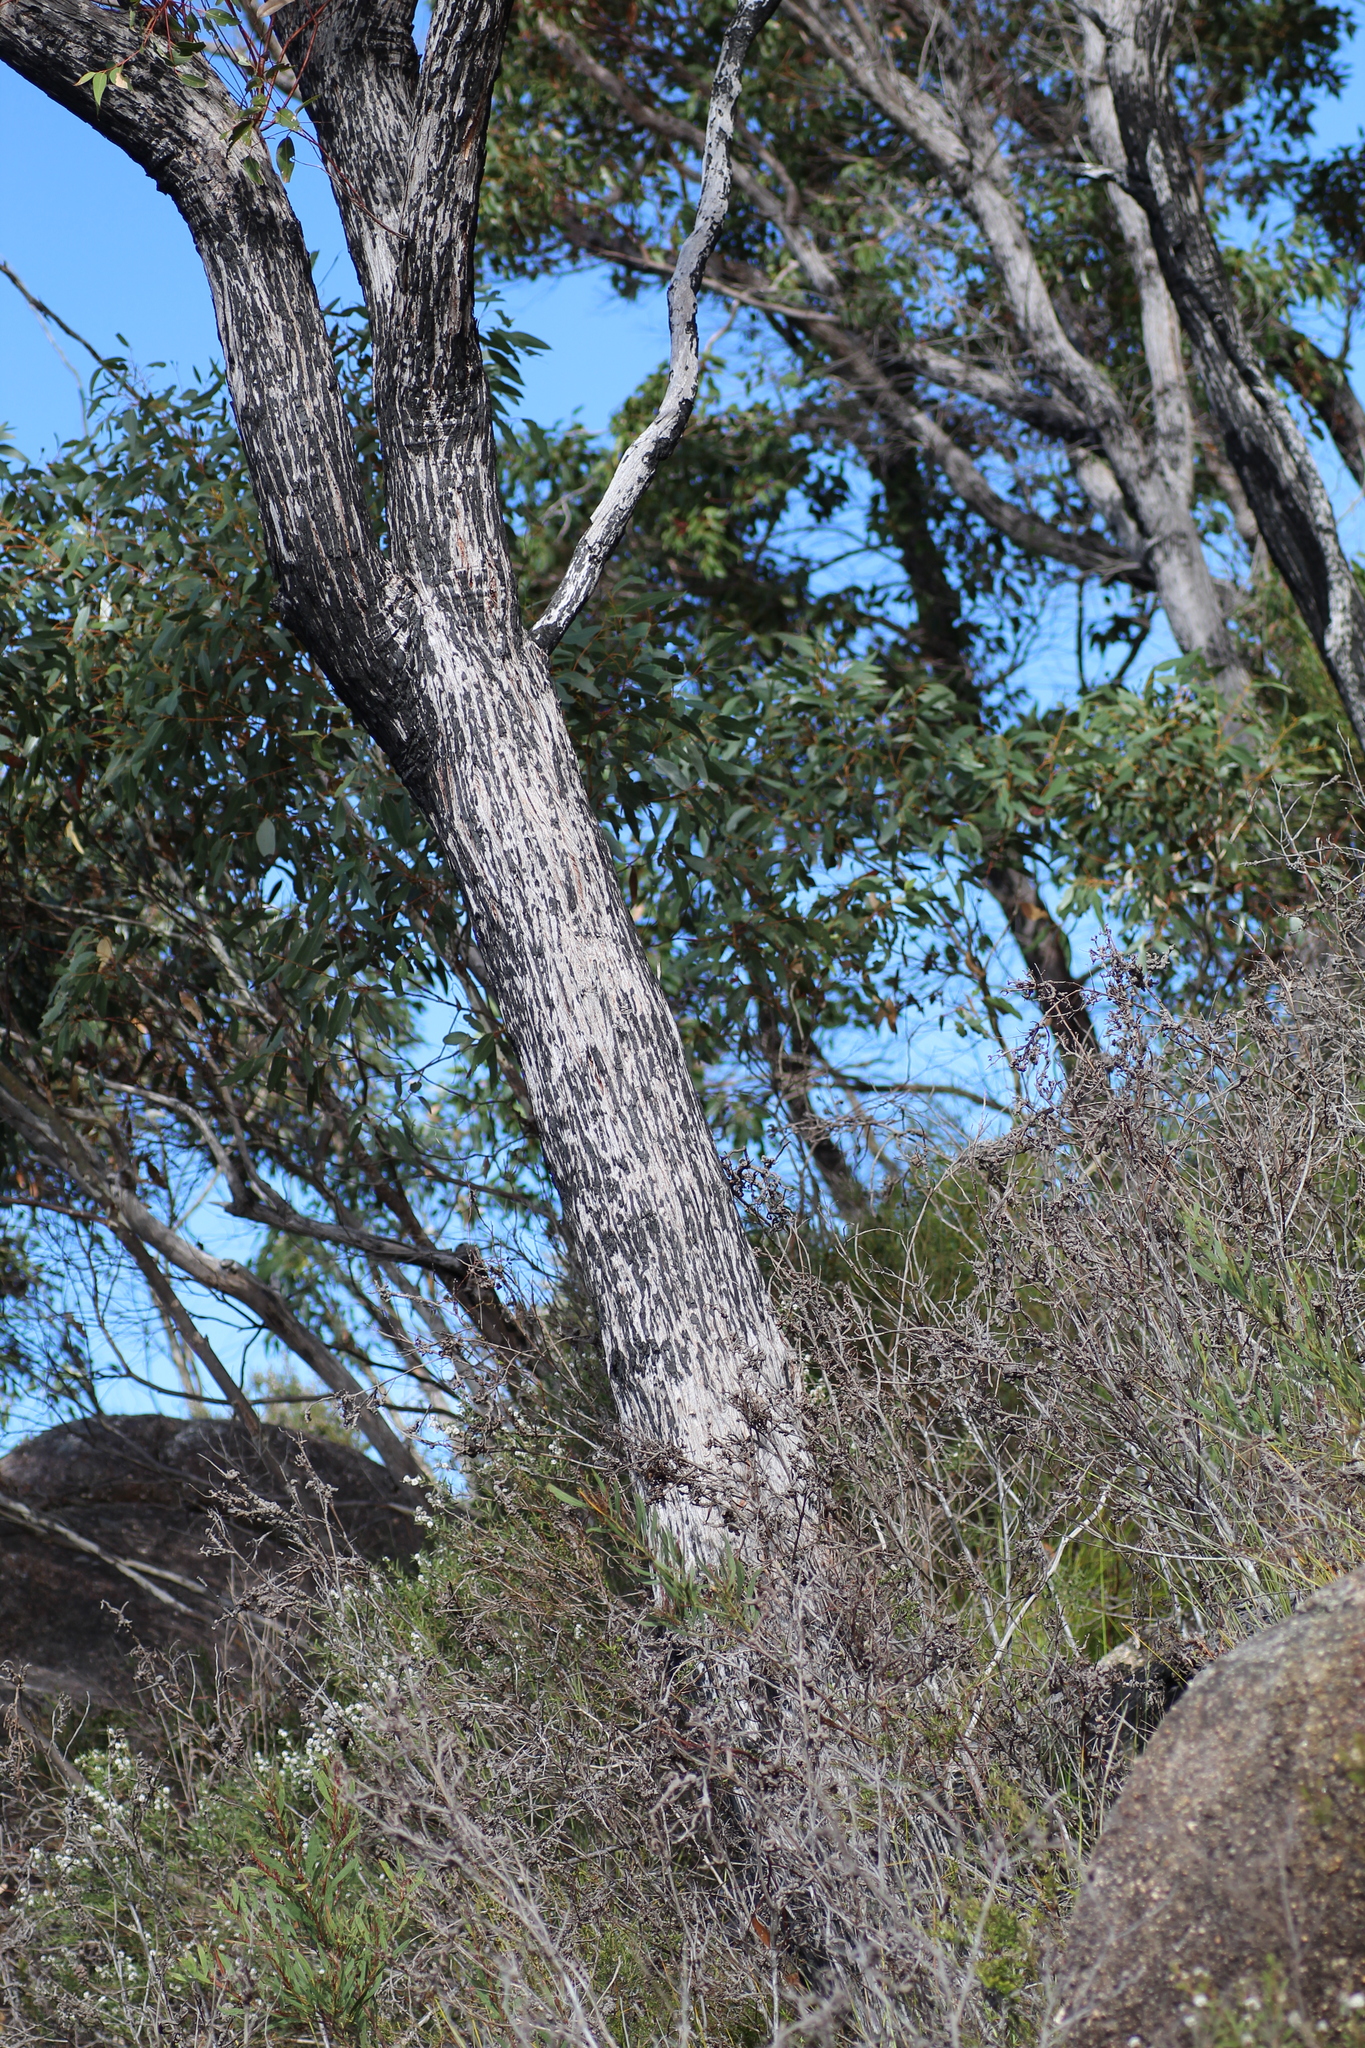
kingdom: Plantae
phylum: Tracheophyta
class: Magnoliopsida
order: Myrtales
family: Myrtaceae
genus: Eucalyptus
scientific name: Eucalyptus marginata
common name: Jarrah
